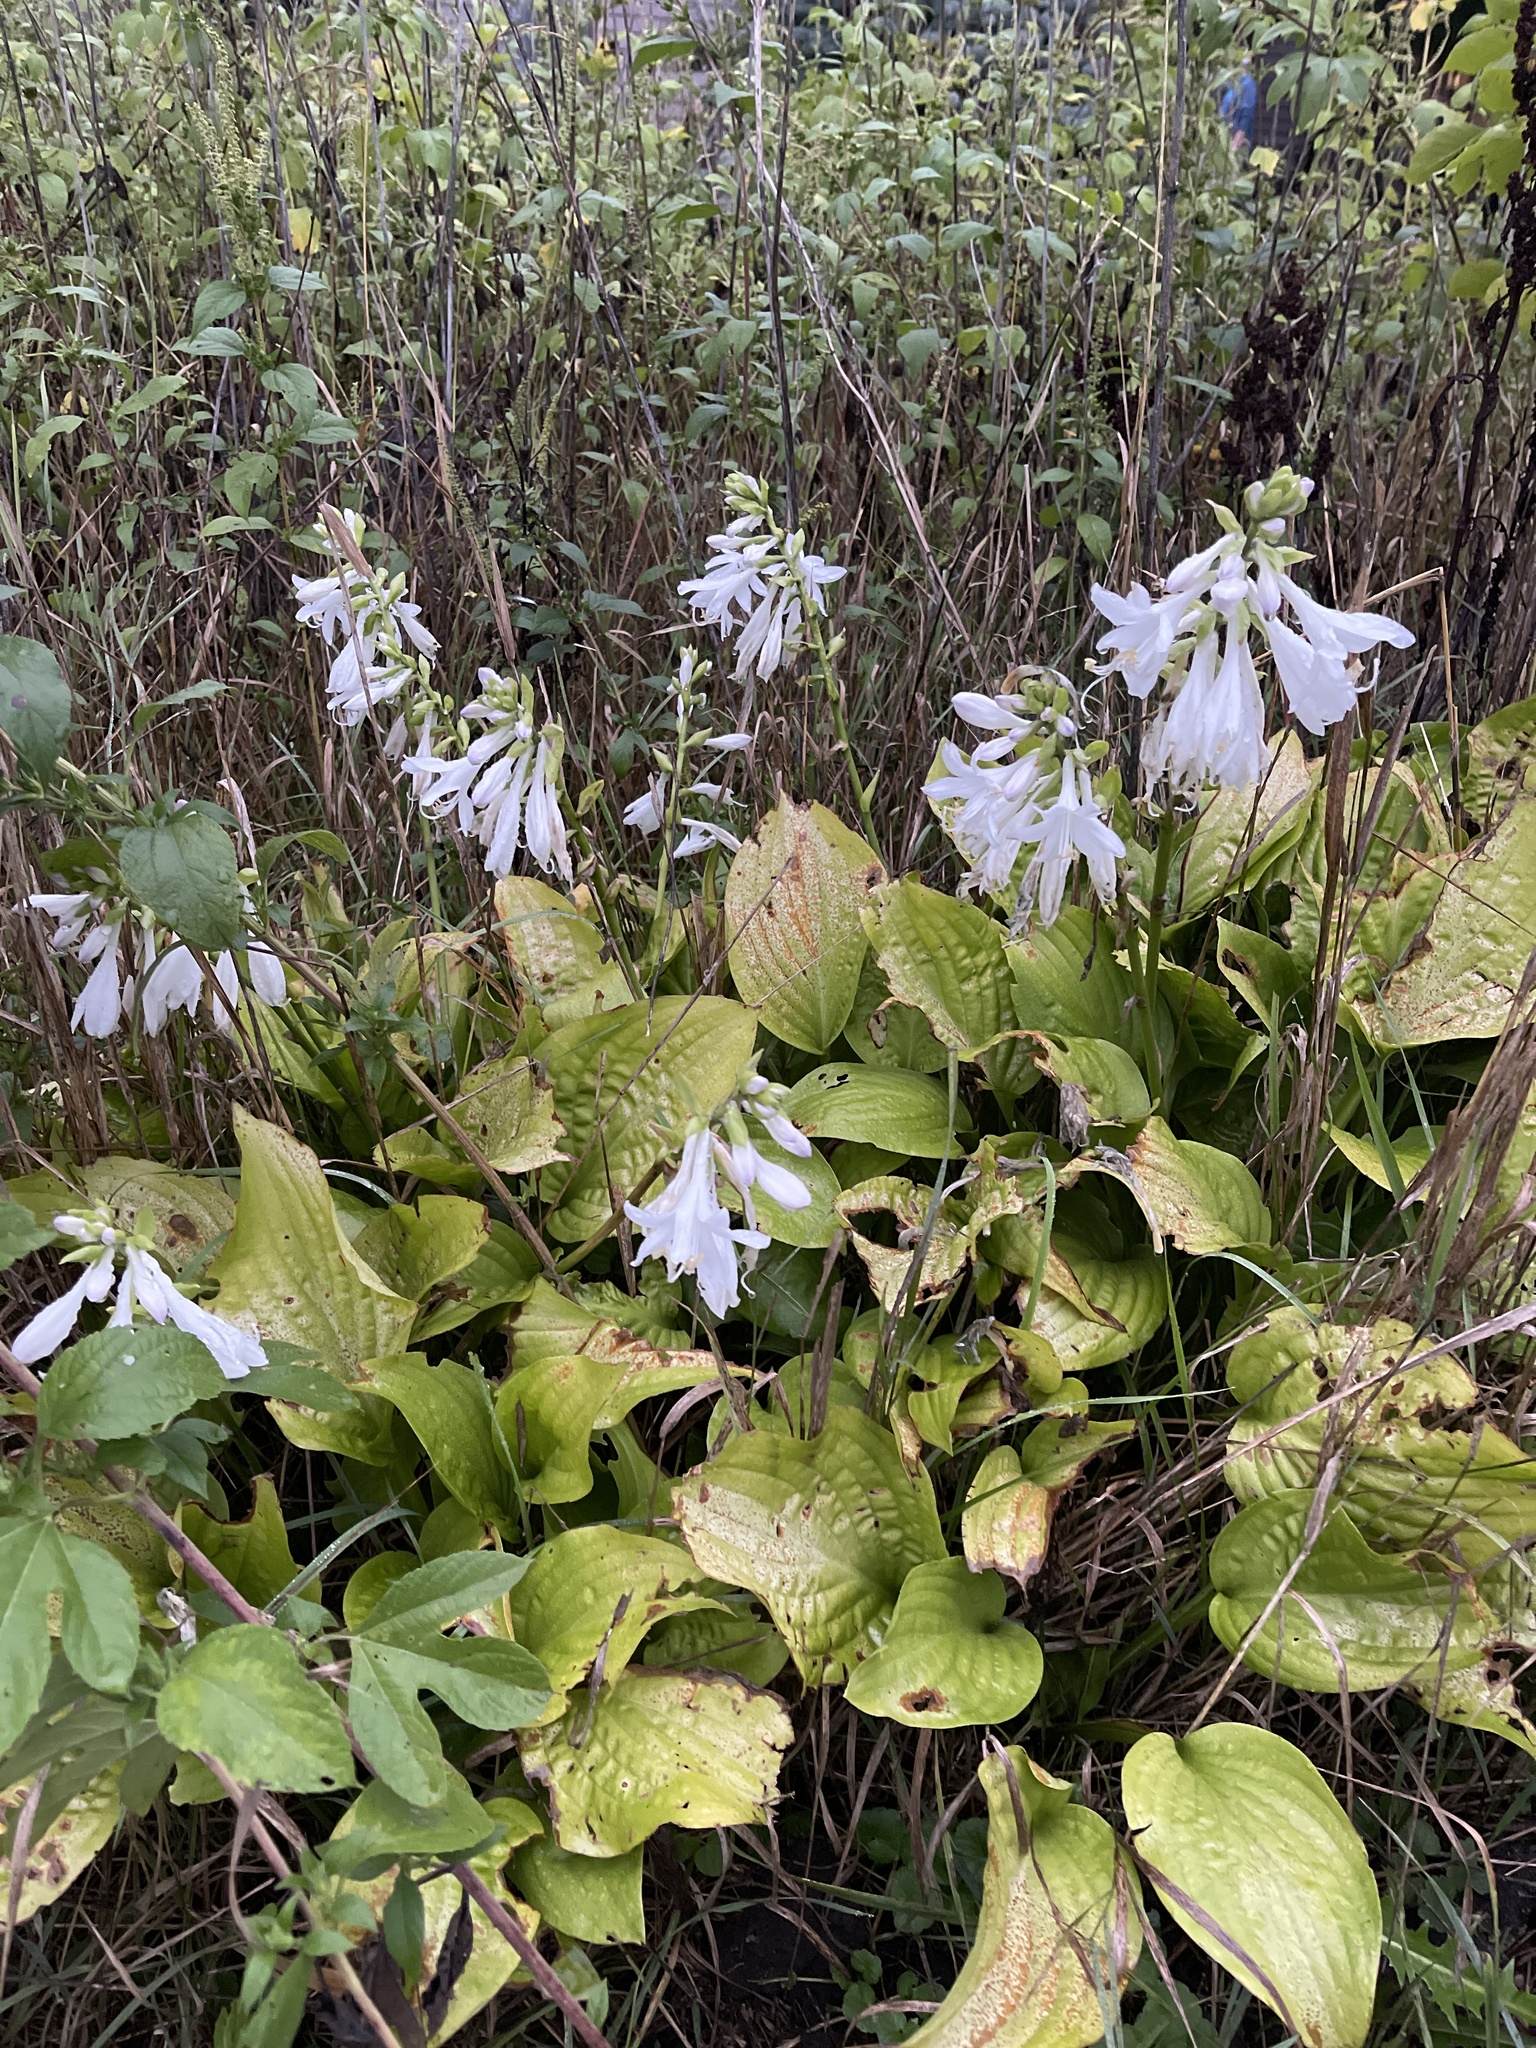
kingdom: Plantae
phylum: Tracheophyta
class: Liliopsida
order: Asparagales
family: Asparagaceae
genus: Hosta
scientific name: Hosta
